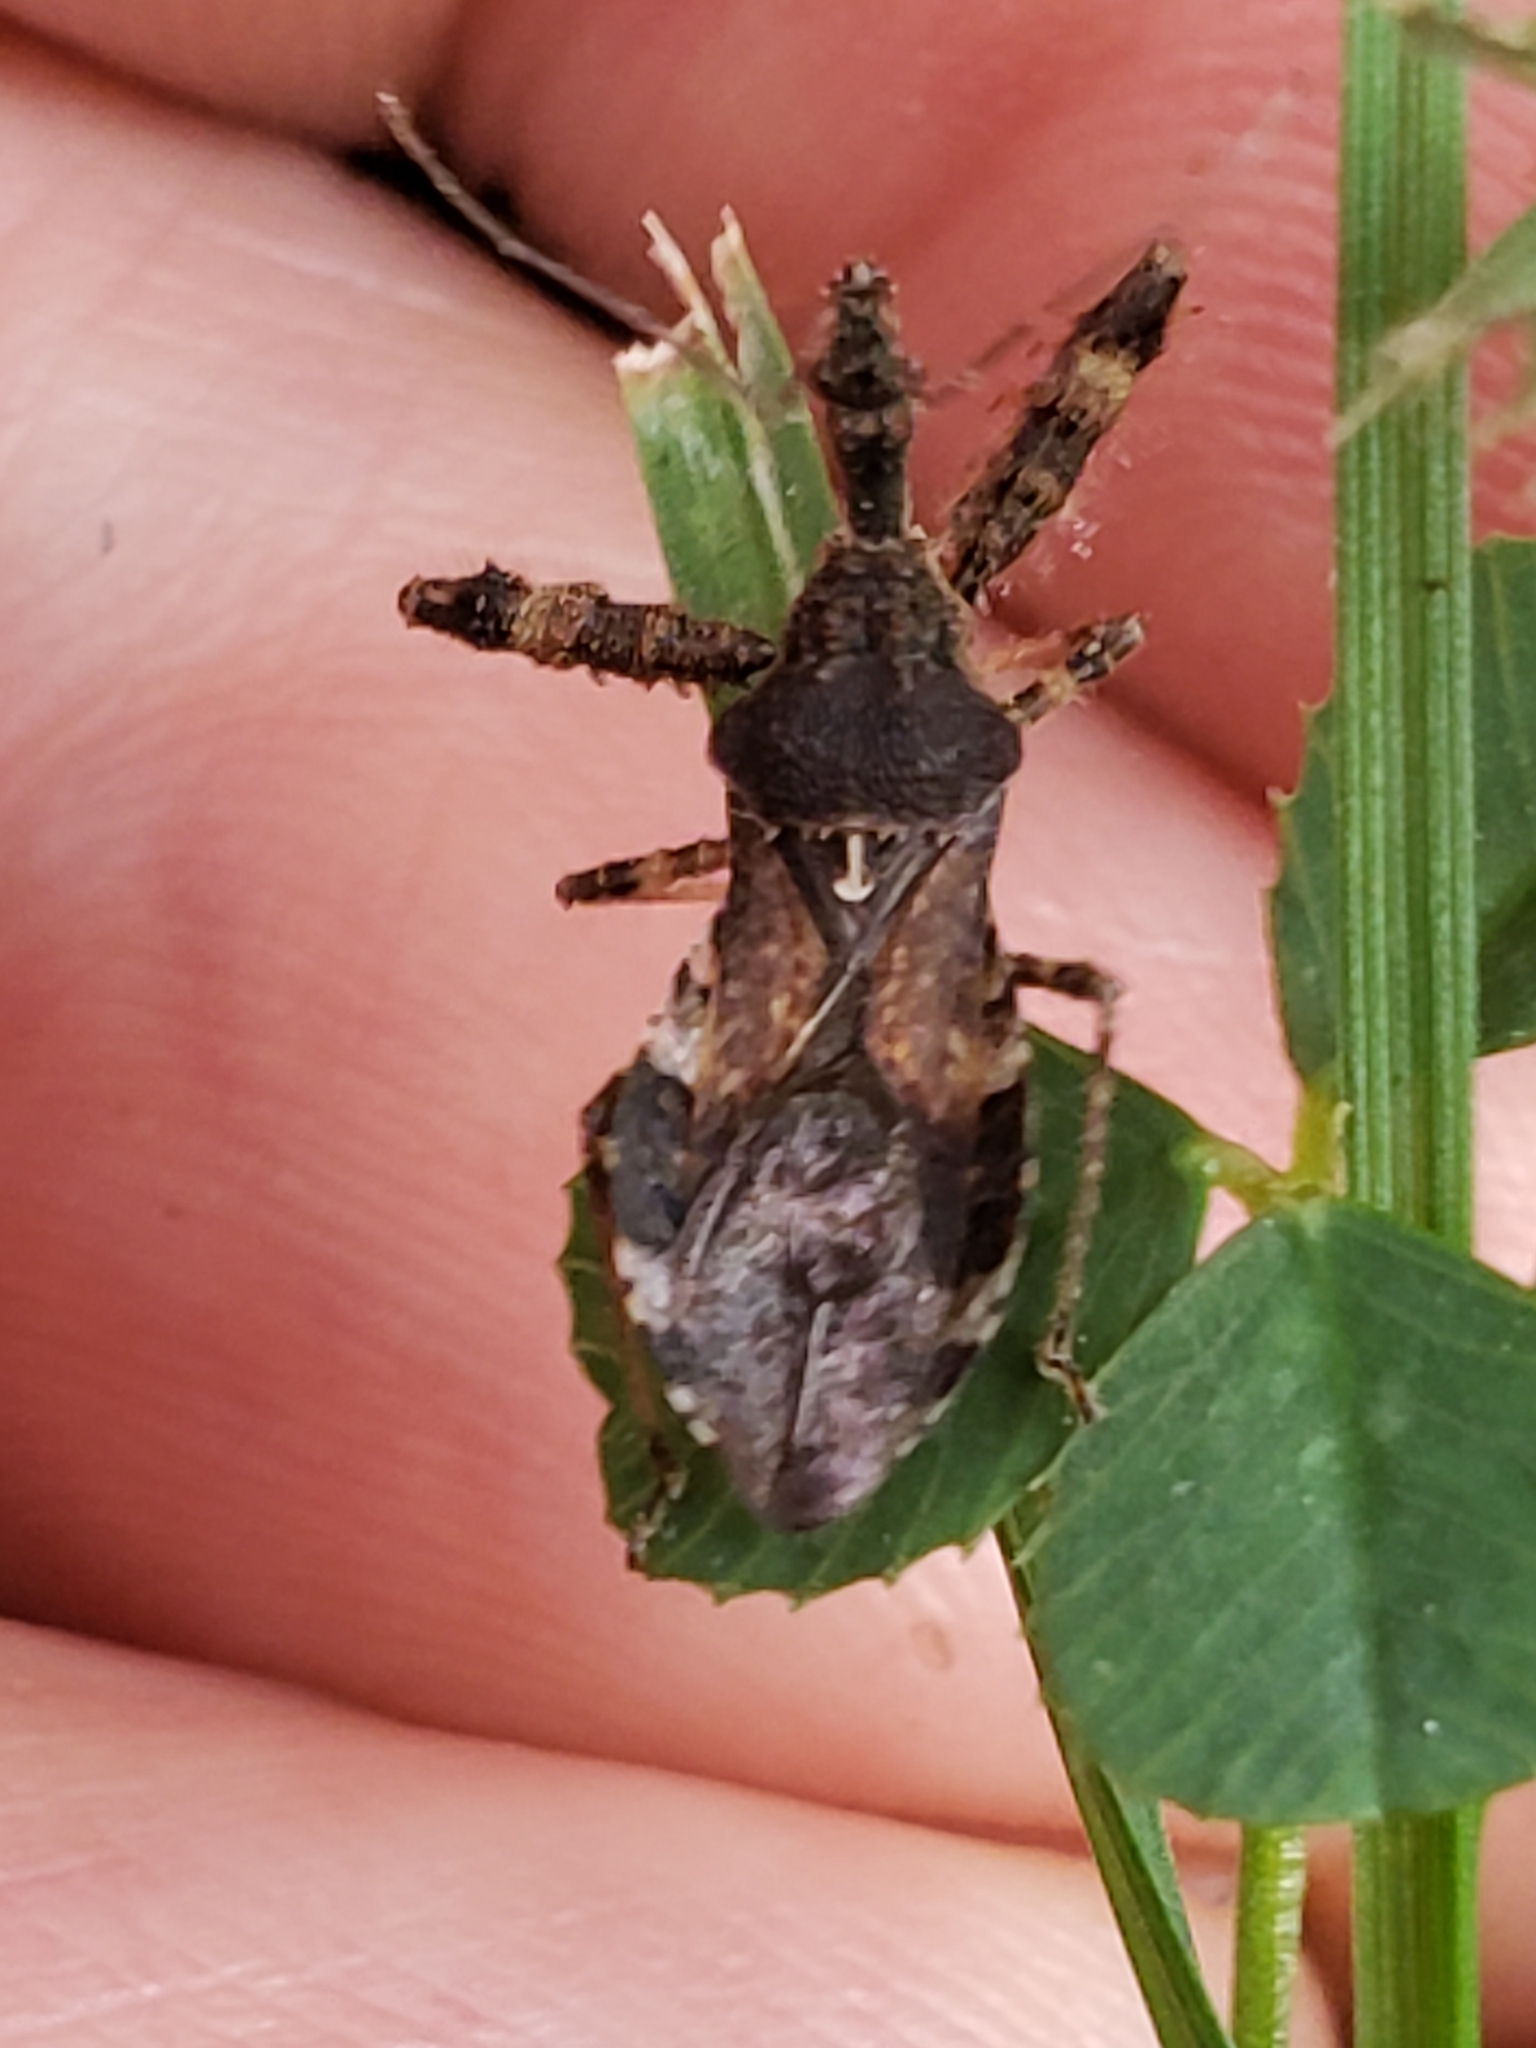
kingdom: Animalia
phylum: Arthropoda
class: Insecta
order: Hemiptera
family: Reduviidae
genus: Sinea
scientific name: Sinea spinipes
